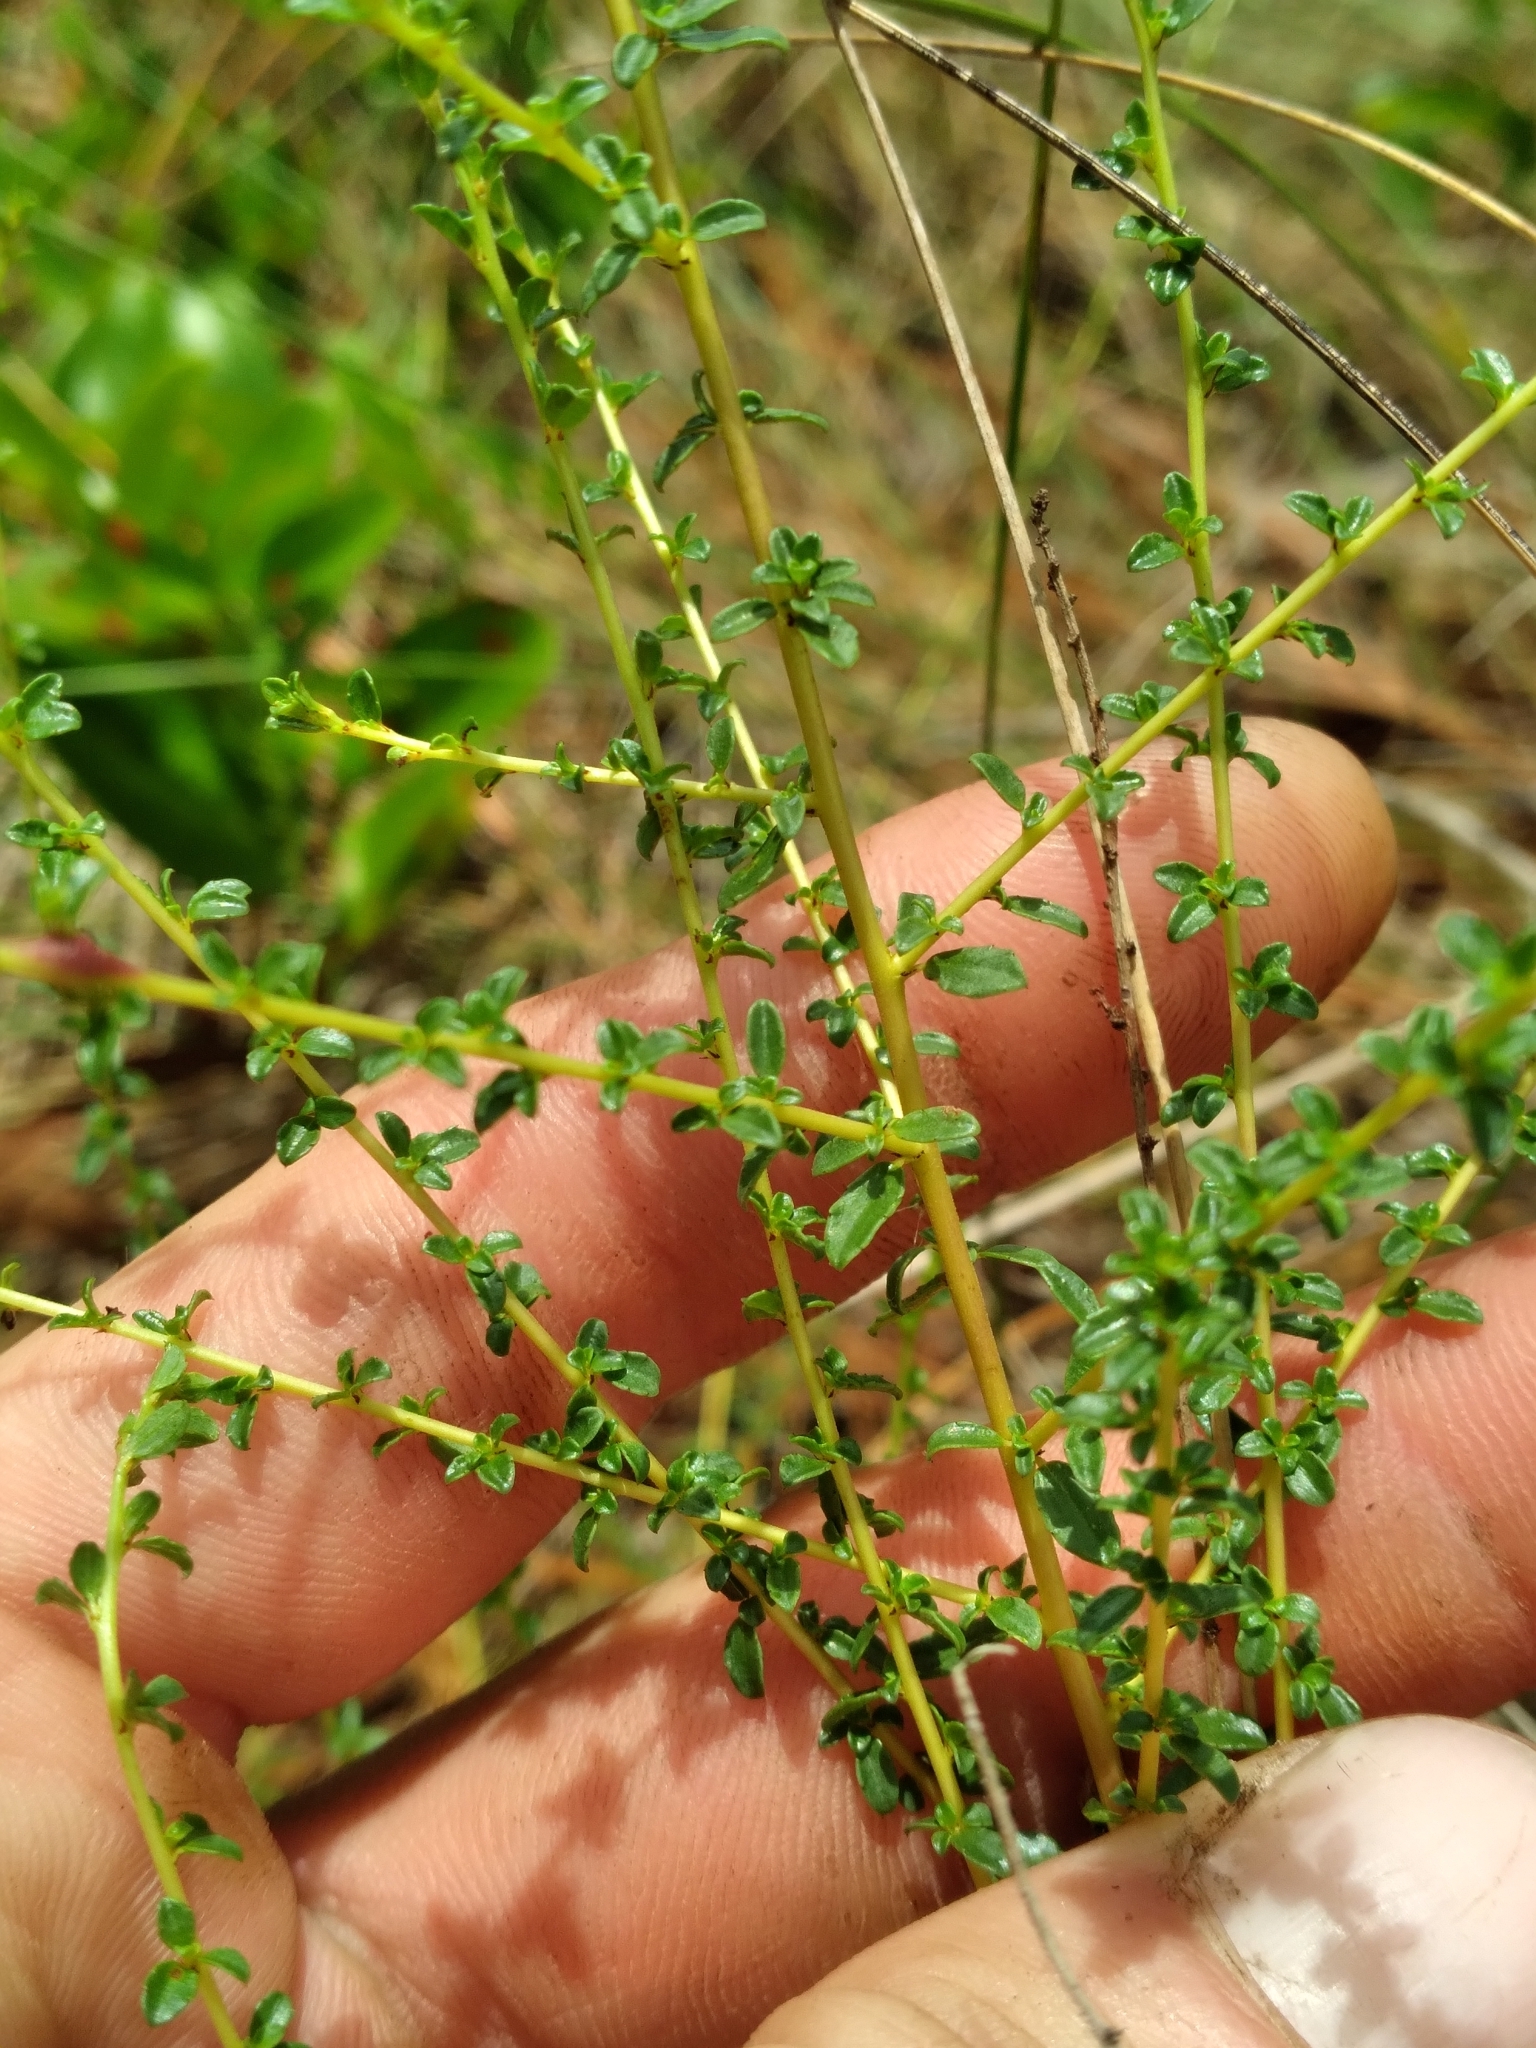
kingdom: Plantae
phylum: Tracheophyta
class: Magnoliopsida
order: Rosales
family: Rhamnaceae
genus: Ceanothus
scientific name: Ceanothus microphyllus
